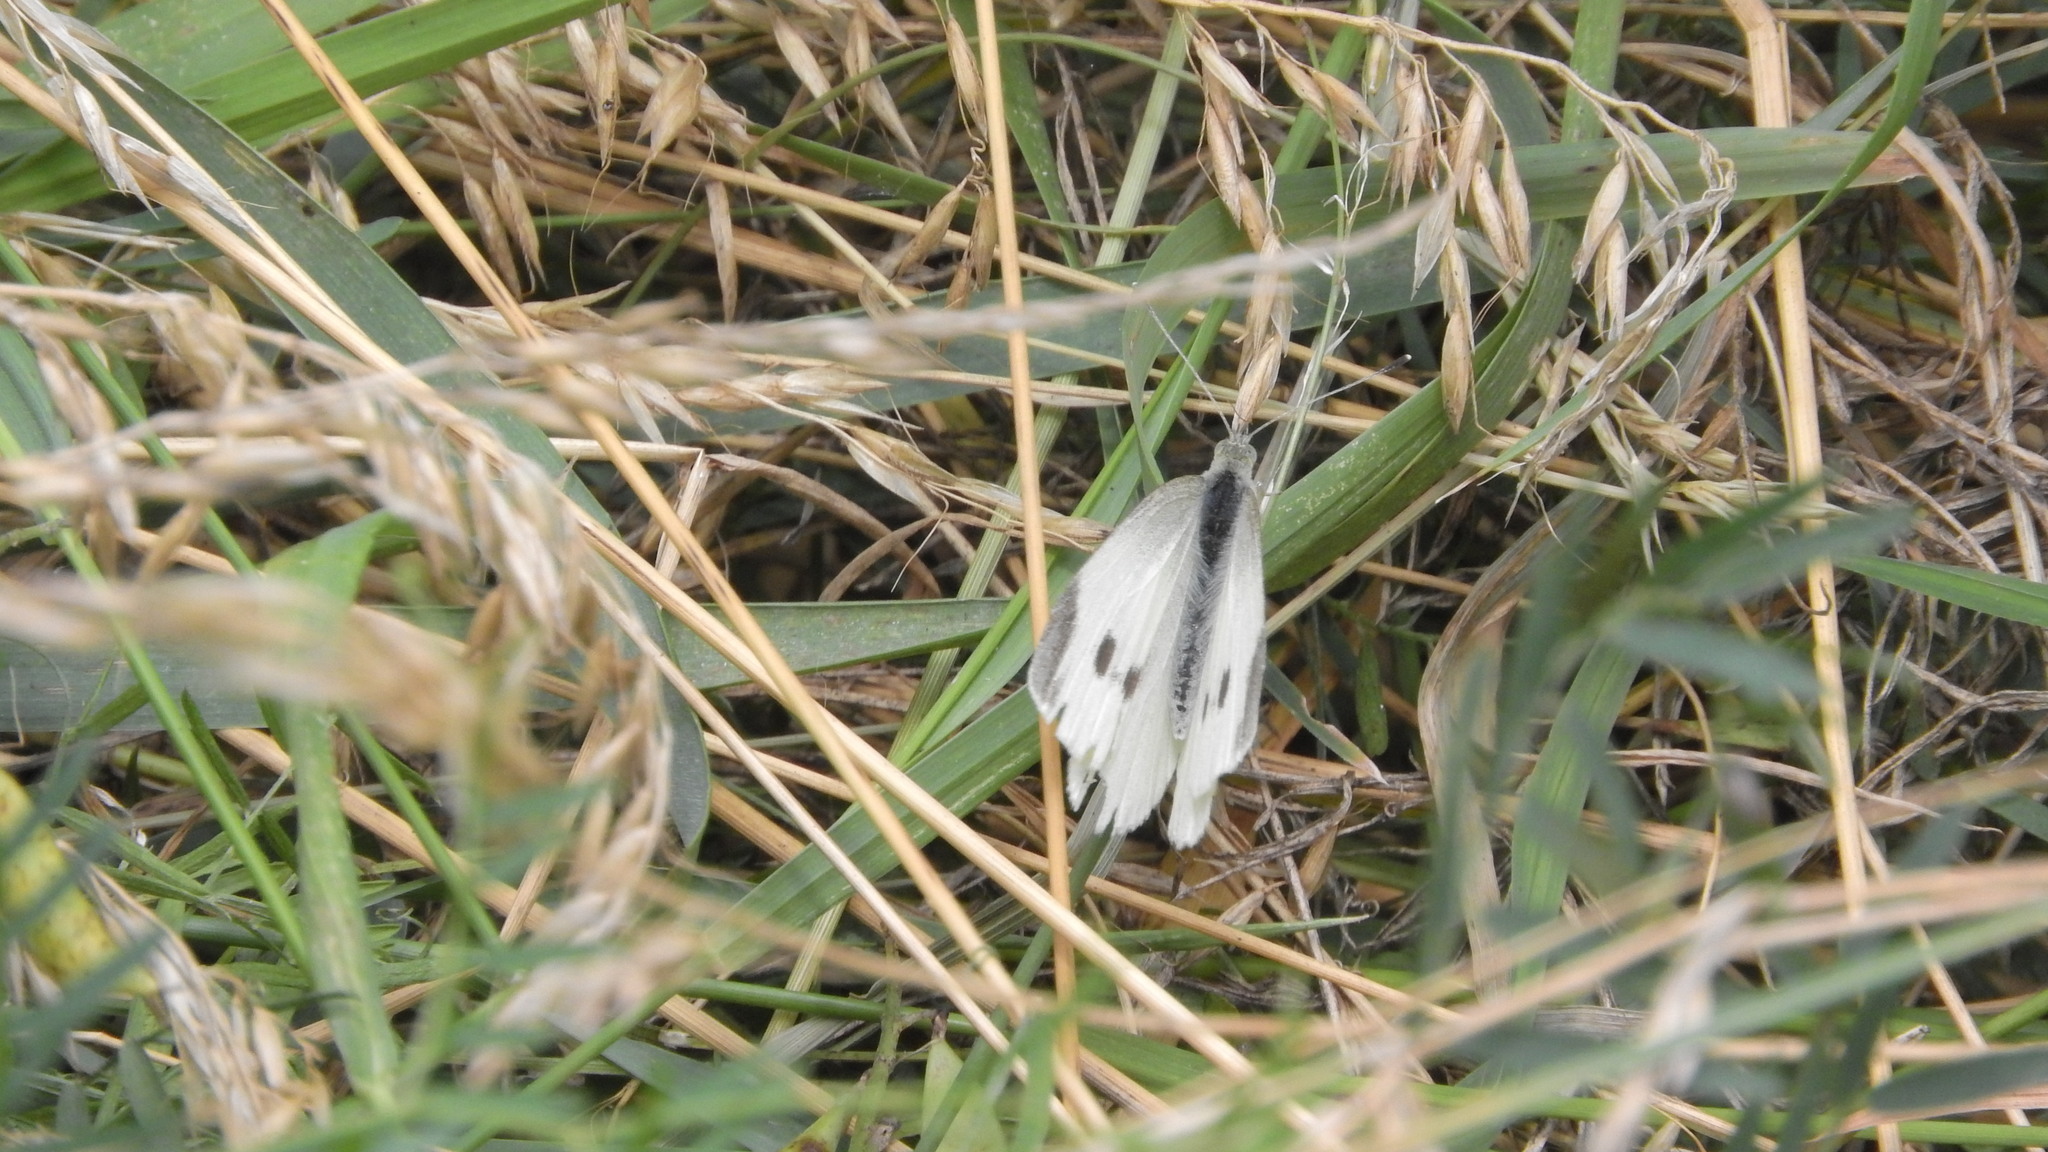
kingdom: Animalia
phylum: Arthropoda
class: Insecta
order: Lepidoptera
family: Pieridae
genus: Pieris
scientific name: Pieris rapae
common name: Small white
